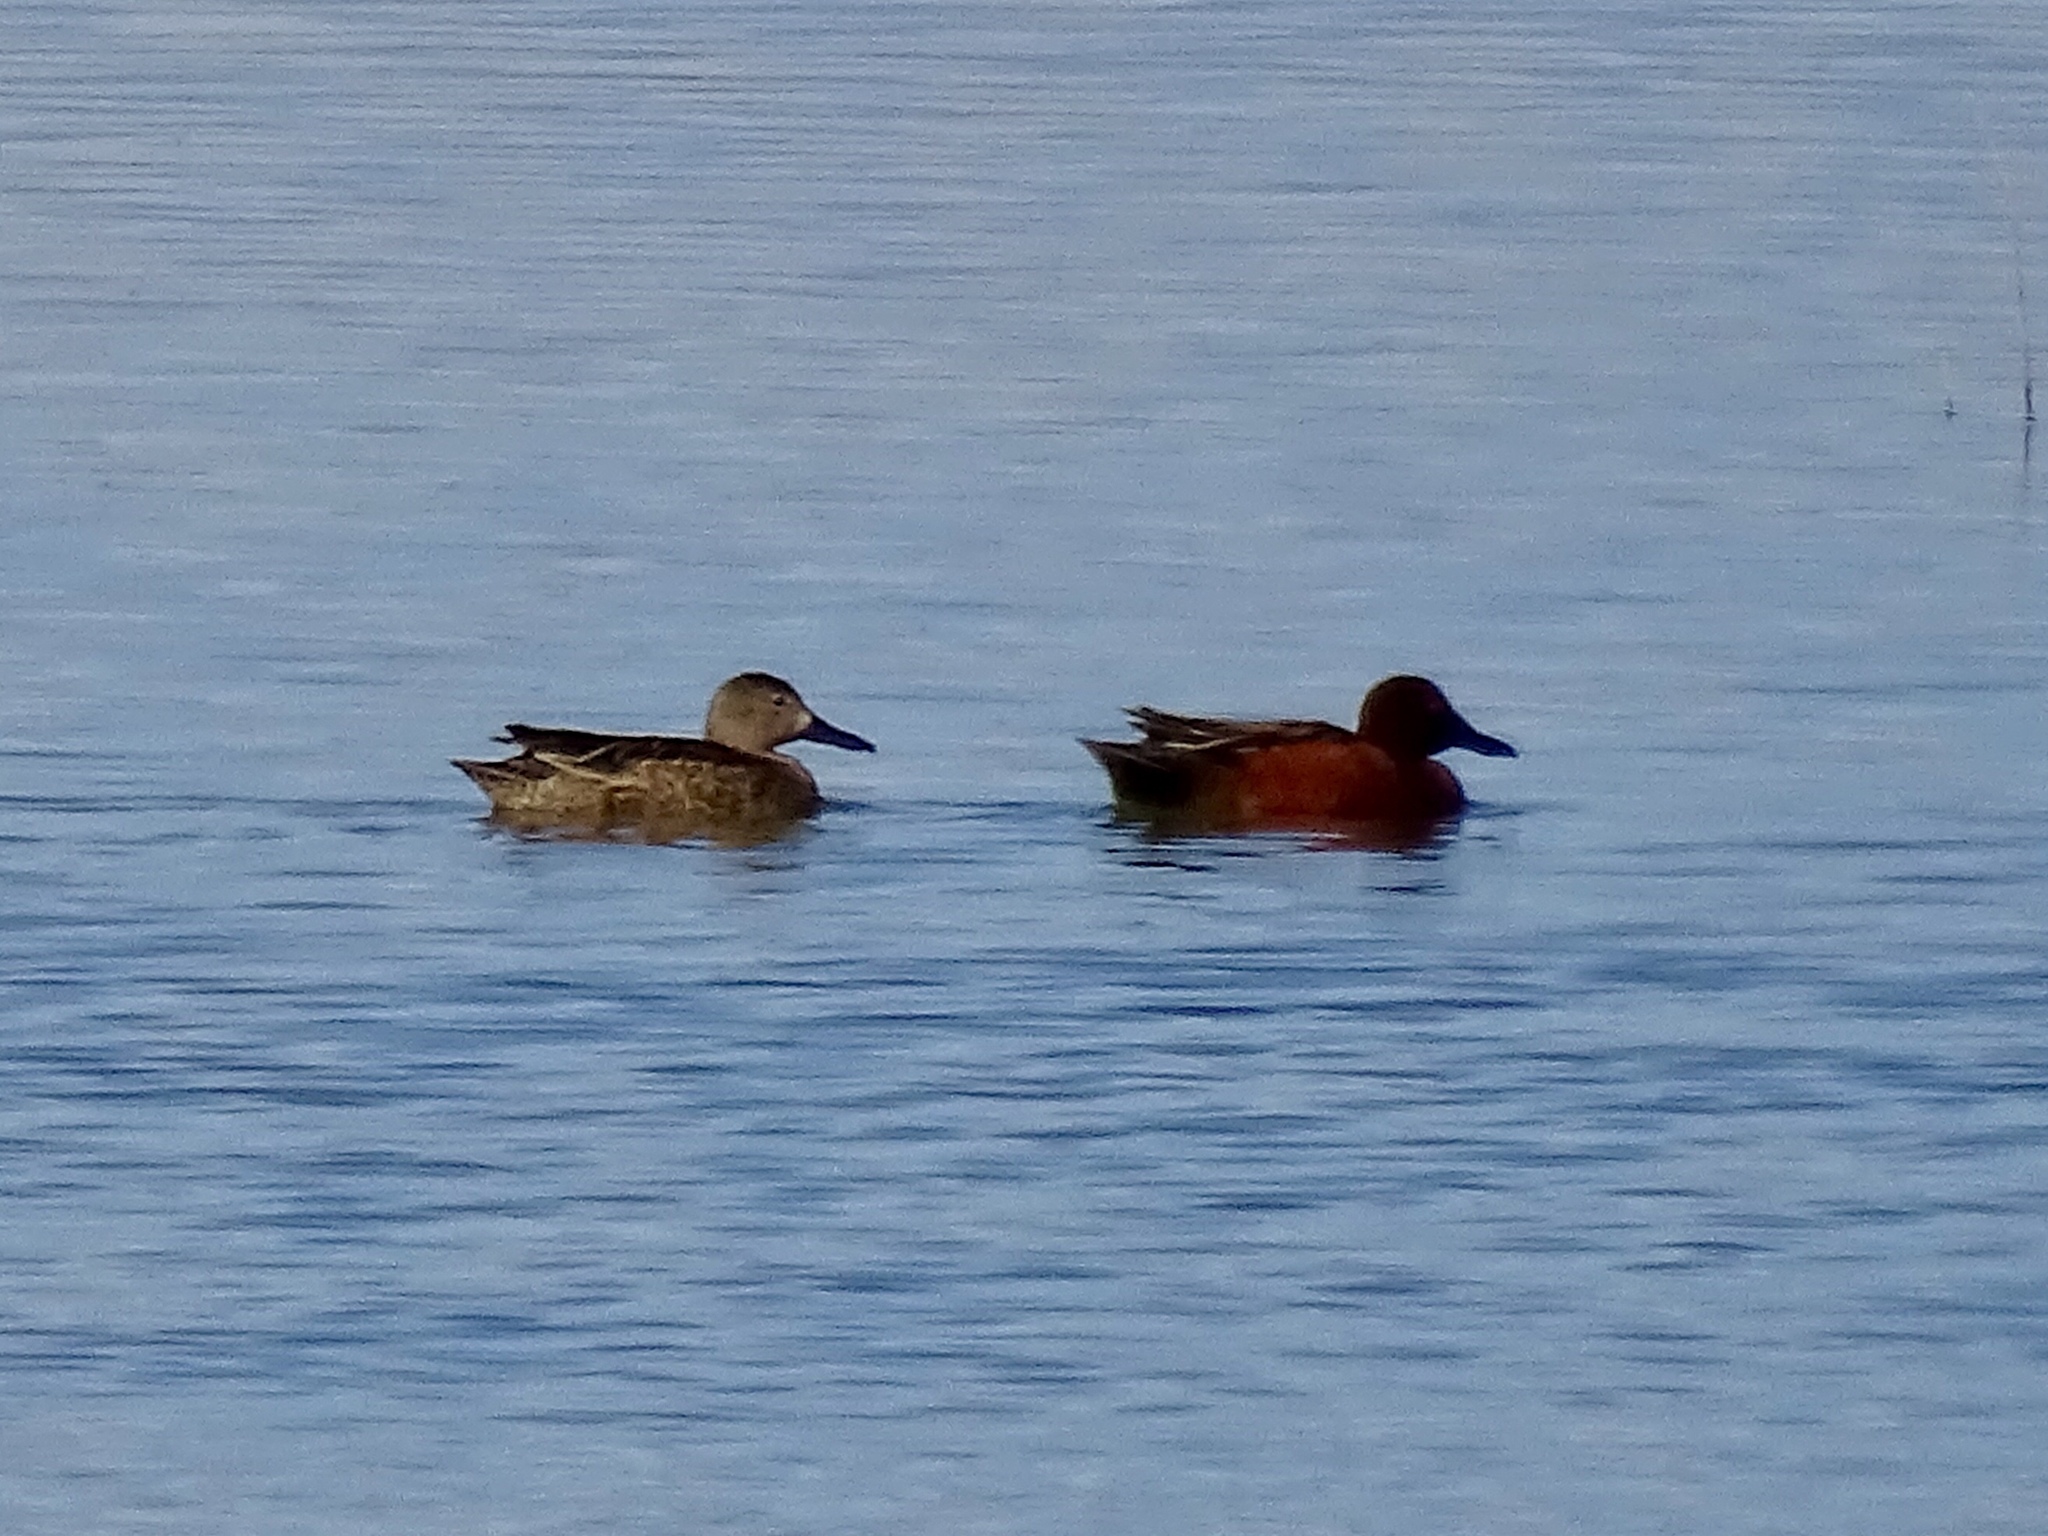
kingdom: Animalia
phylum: Chordata
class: Aves
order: Anseriformes
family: Anatidae
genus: Spatula
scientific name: Spatula cyanoptera
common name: Cinnamon teal
